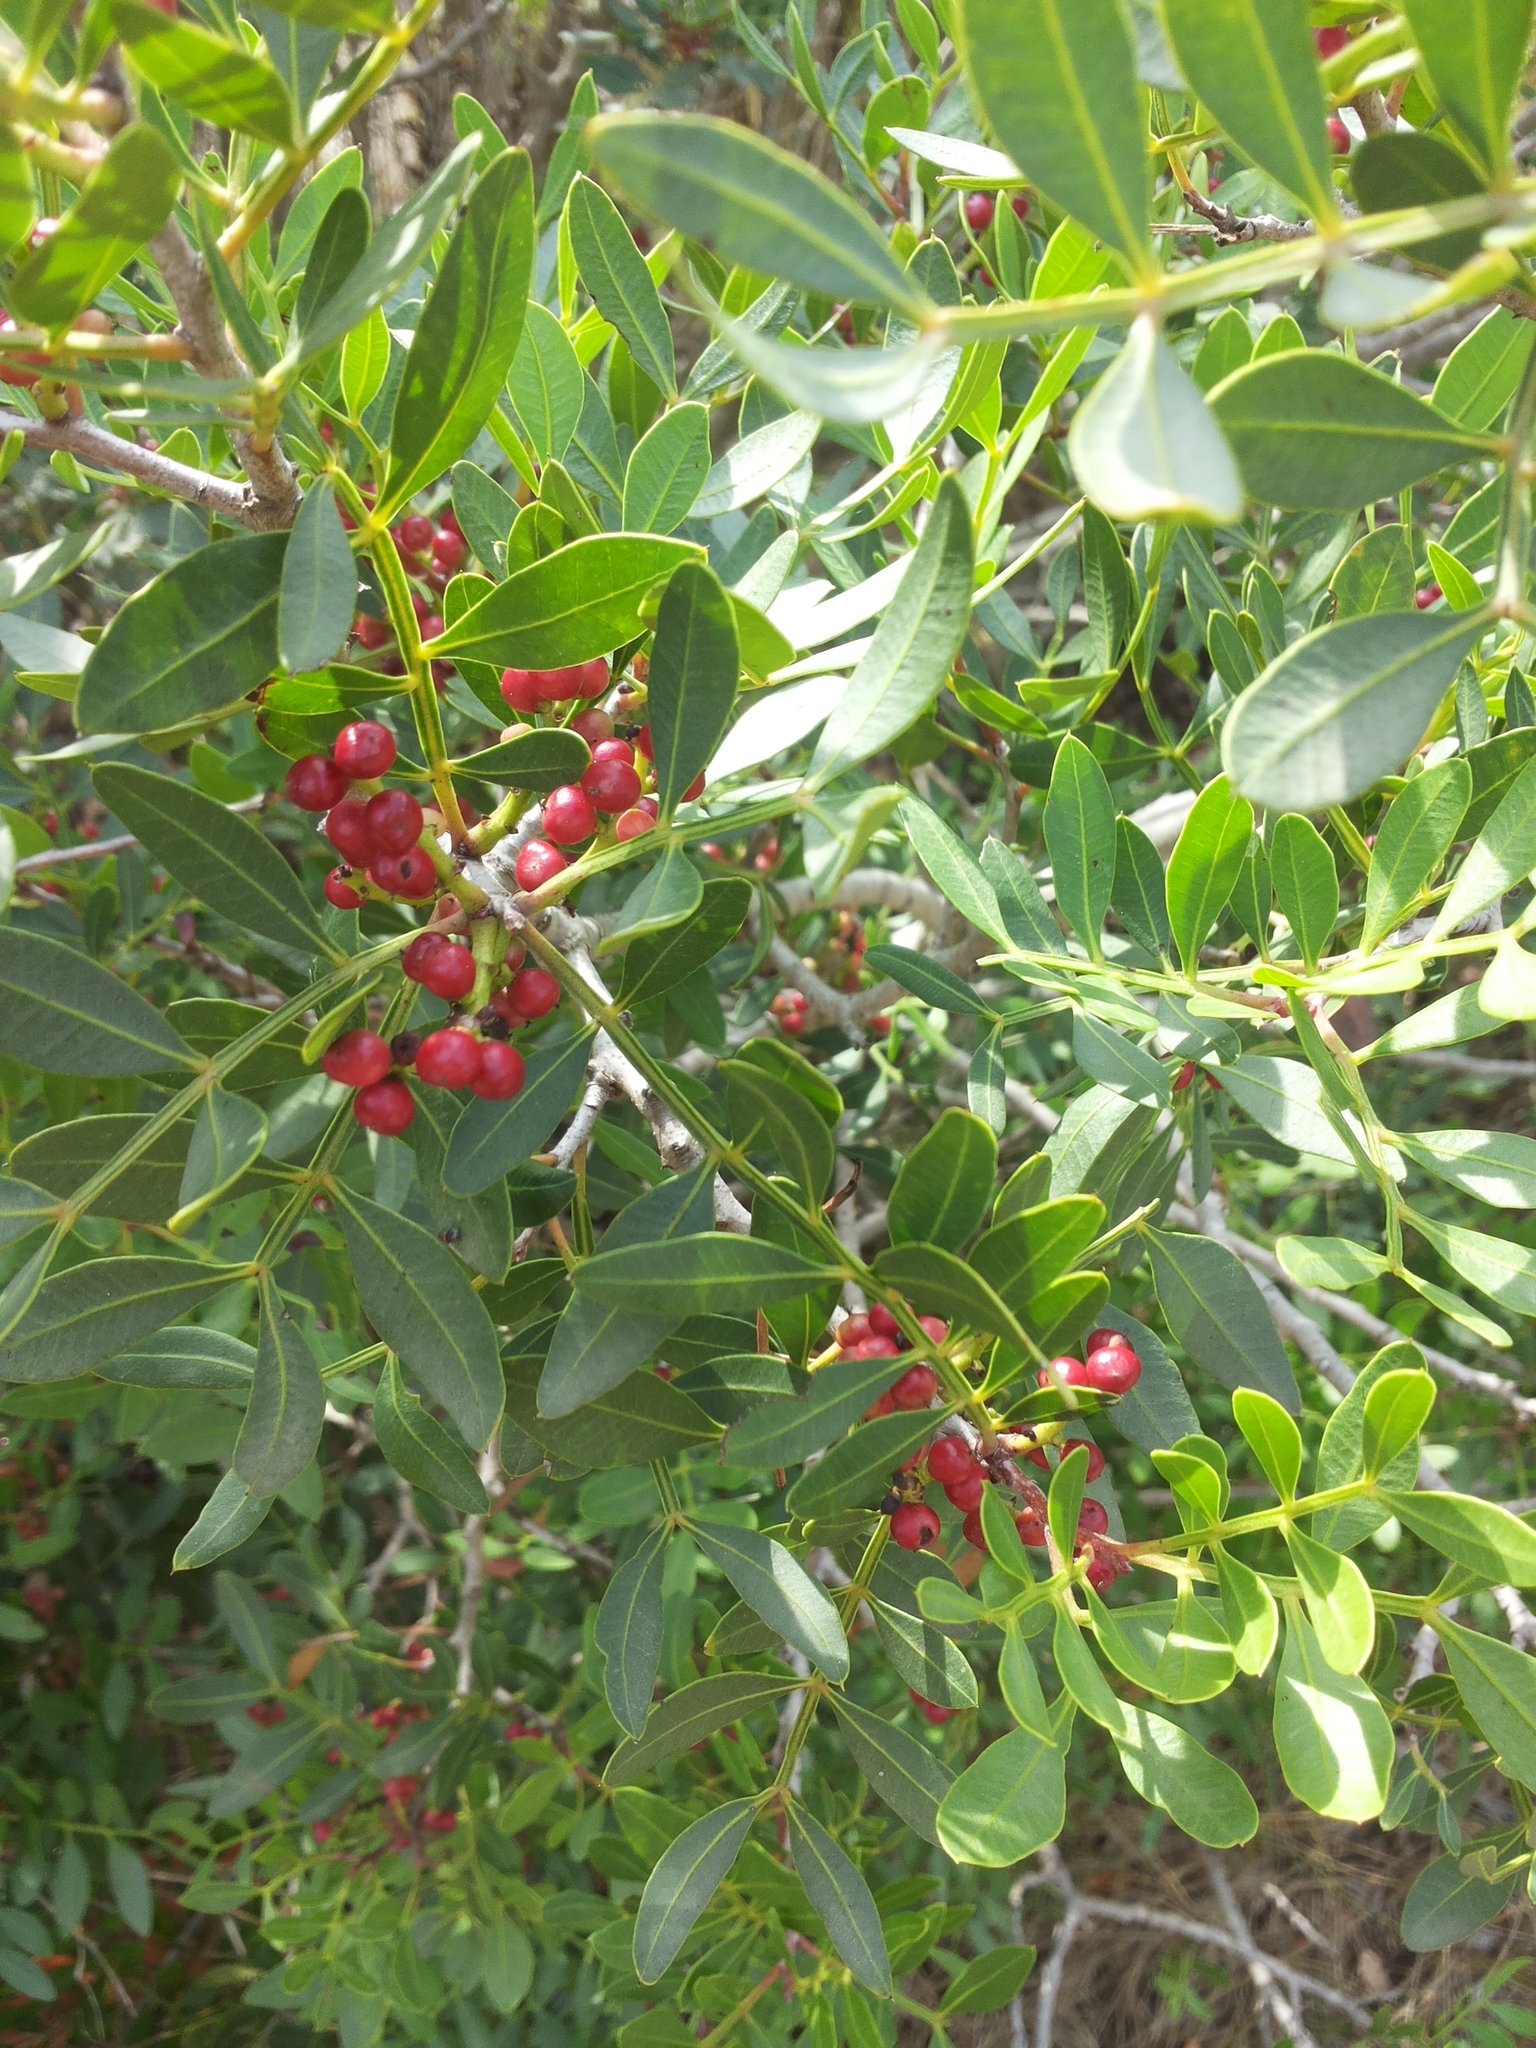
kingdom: Plantae
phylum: Tracheophyta
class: Magnoliopsida
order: Sapindales
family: Anacardiaceae
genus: Pistacia
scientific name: Pistacia lentiscus
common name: Lentisk
